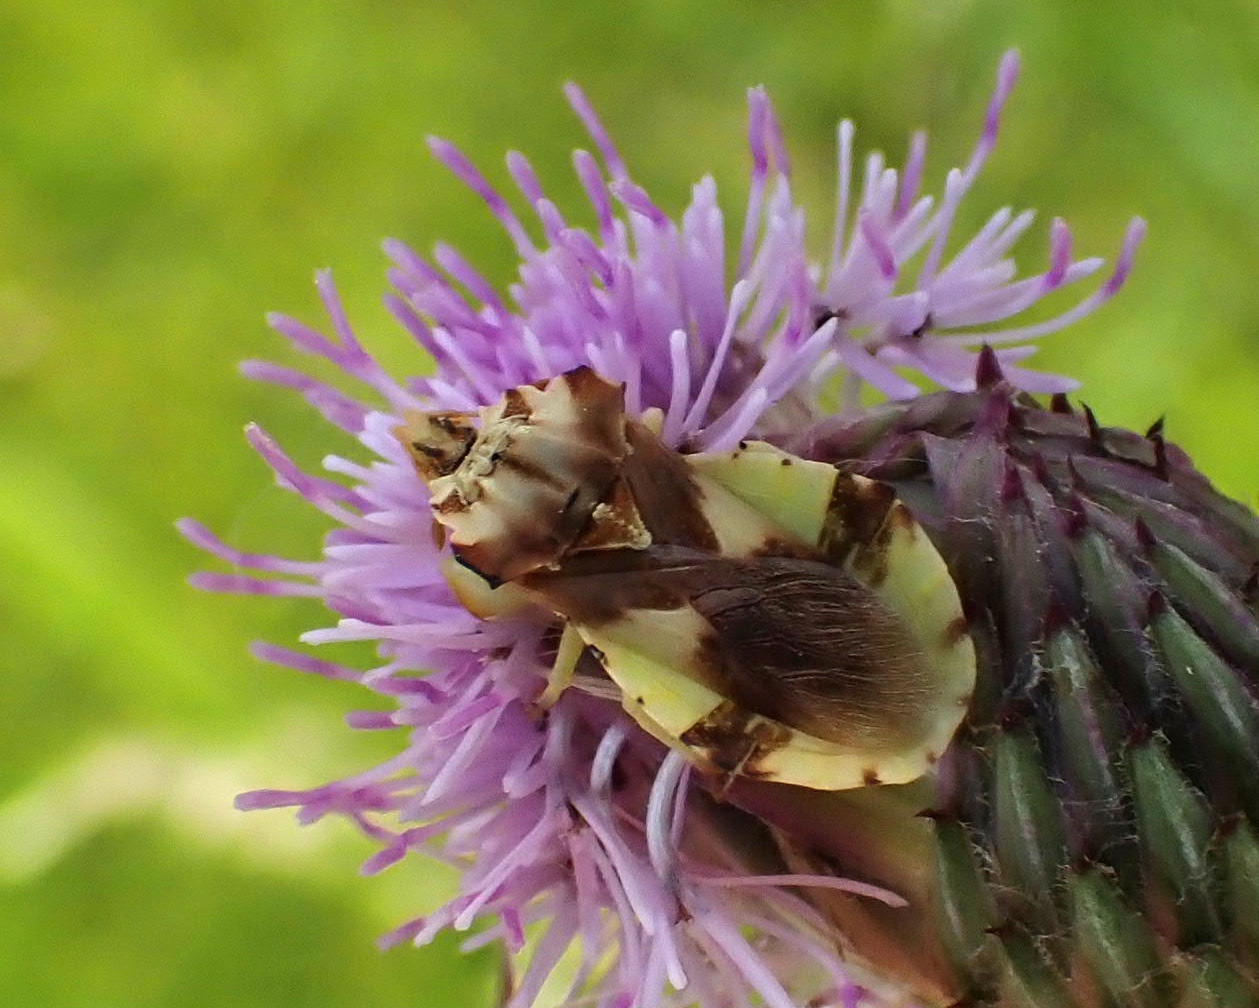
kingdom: Animalia
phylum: Arthropoda
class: Insecta
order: Hemiptera
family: Reduviidae
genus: Phymata
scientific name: Phymata americana
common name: Jagged ambush bug
